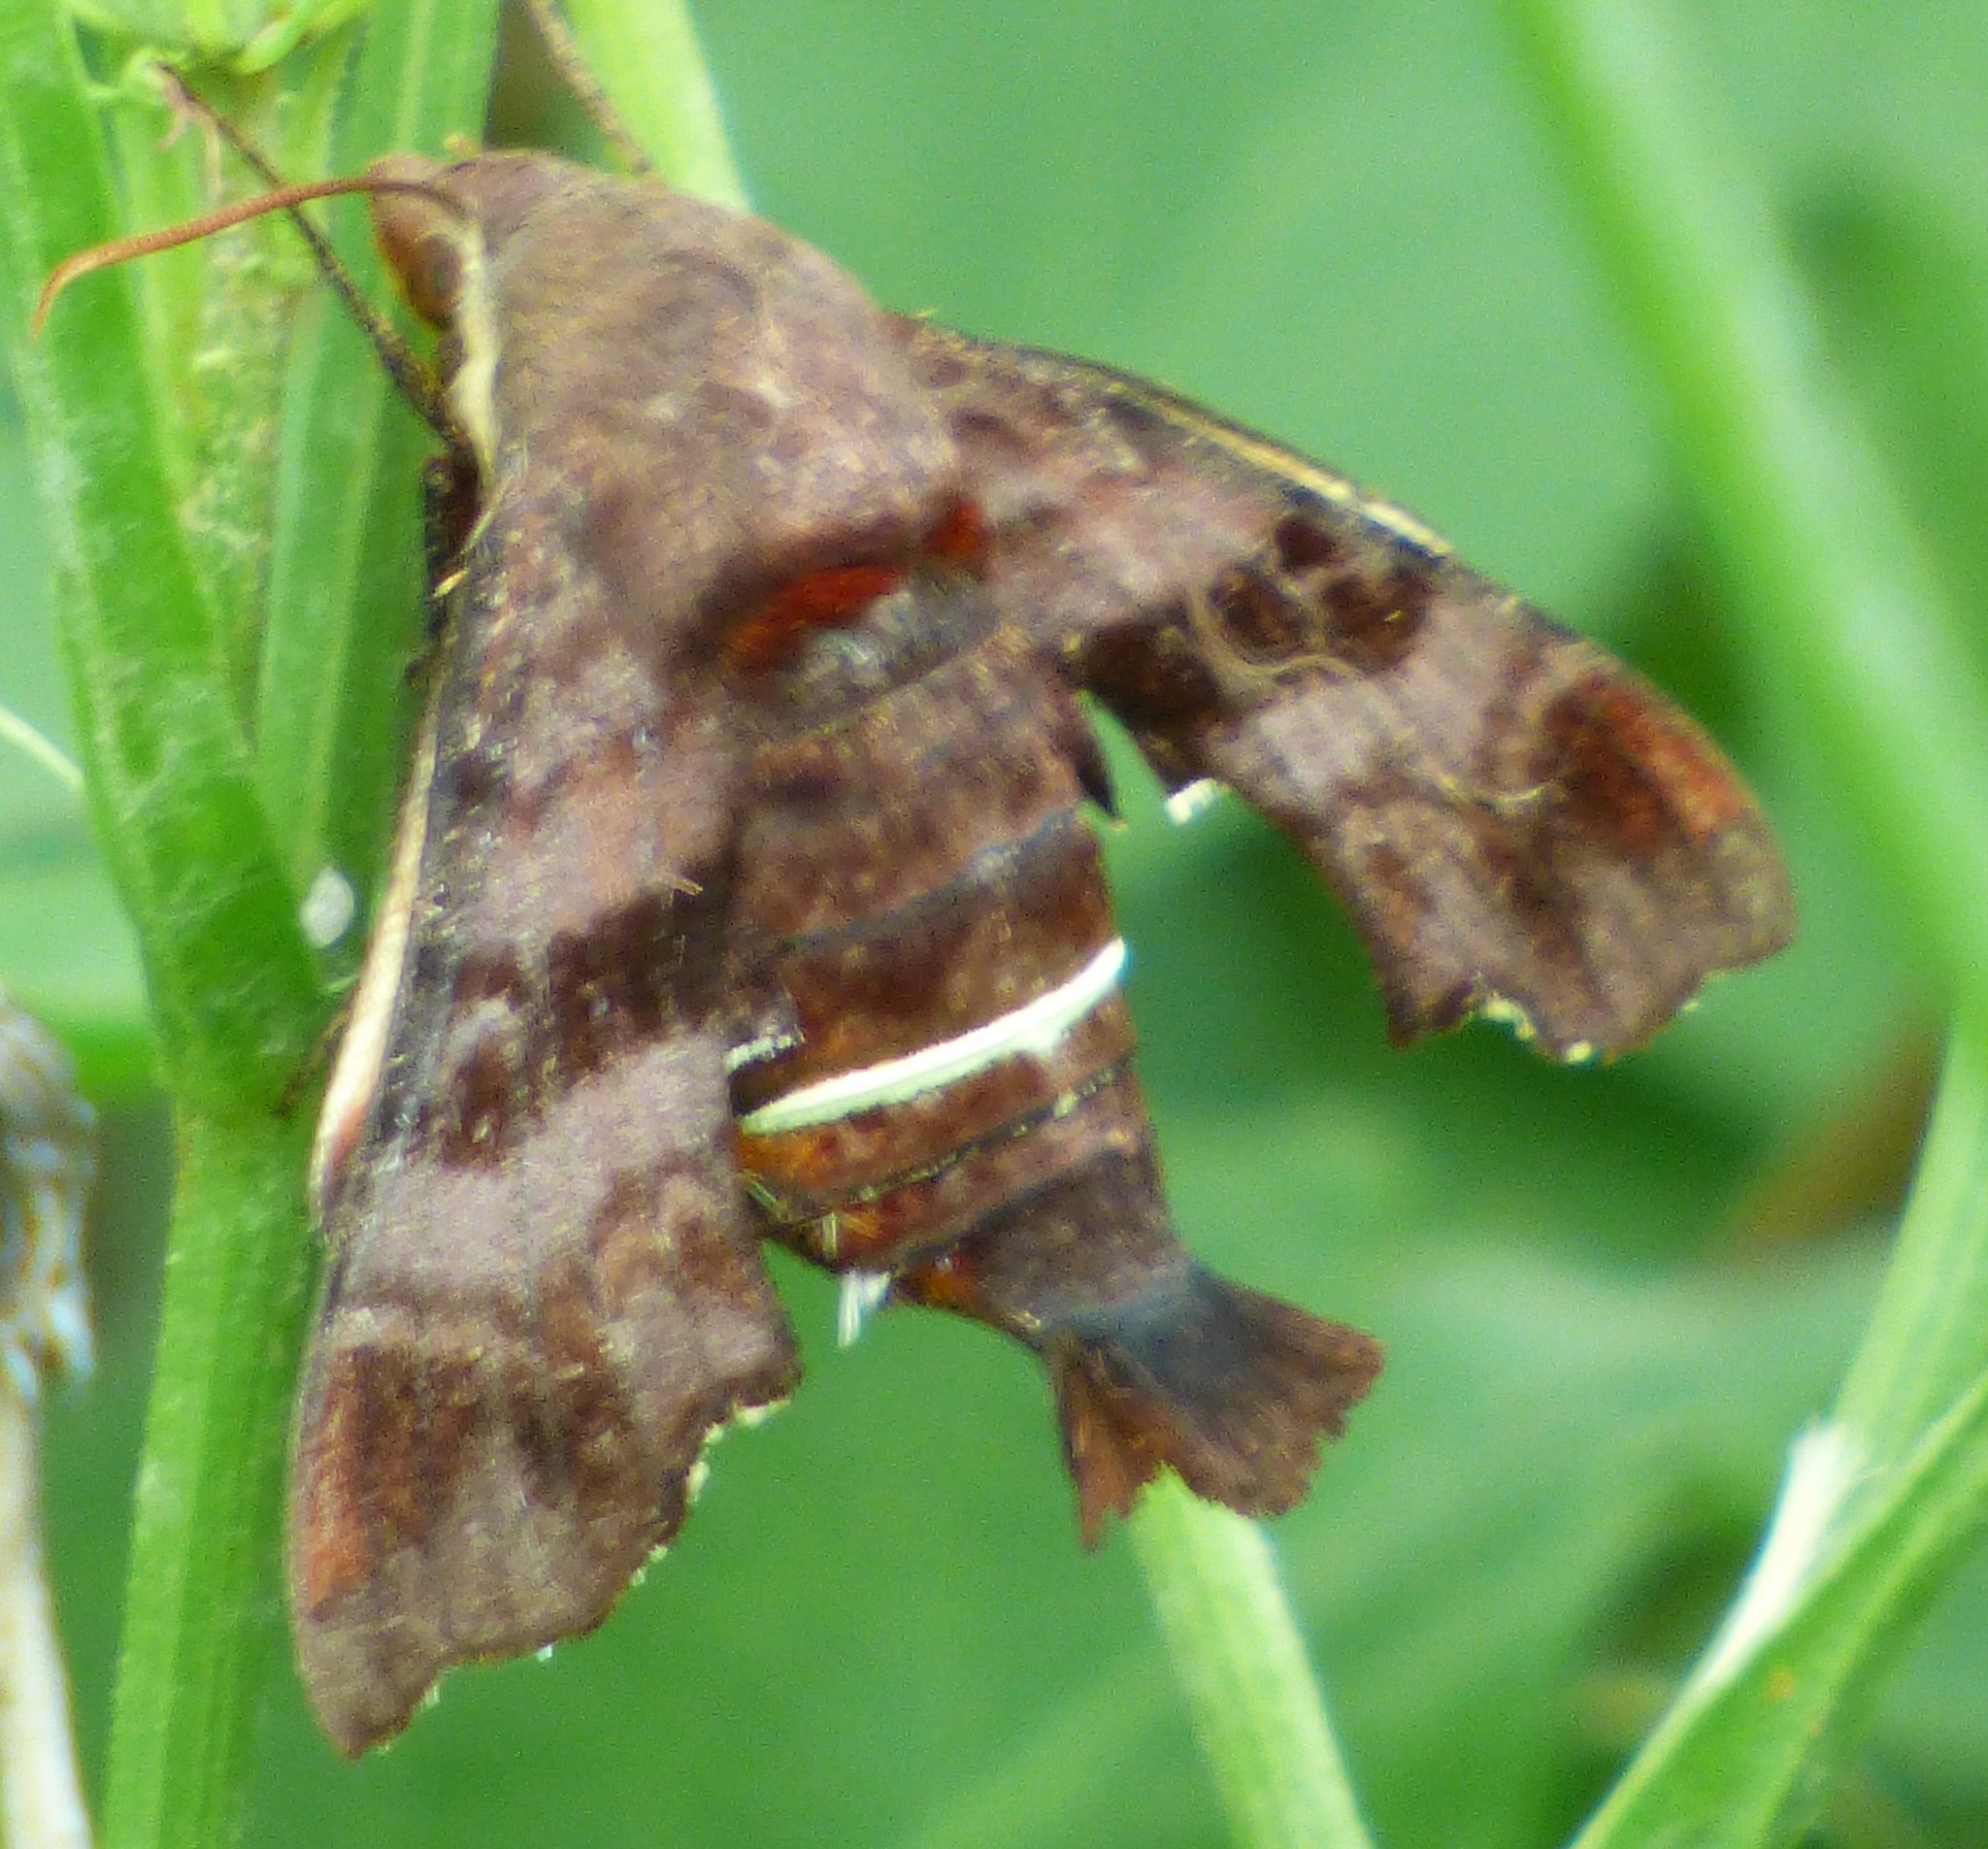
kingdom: Animalia
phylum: Arthropoda
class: Insecta
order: Lepidoptera
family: Sphingidae
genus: Amphion
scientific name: Amphion floridensis
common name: Nessus sphinx
